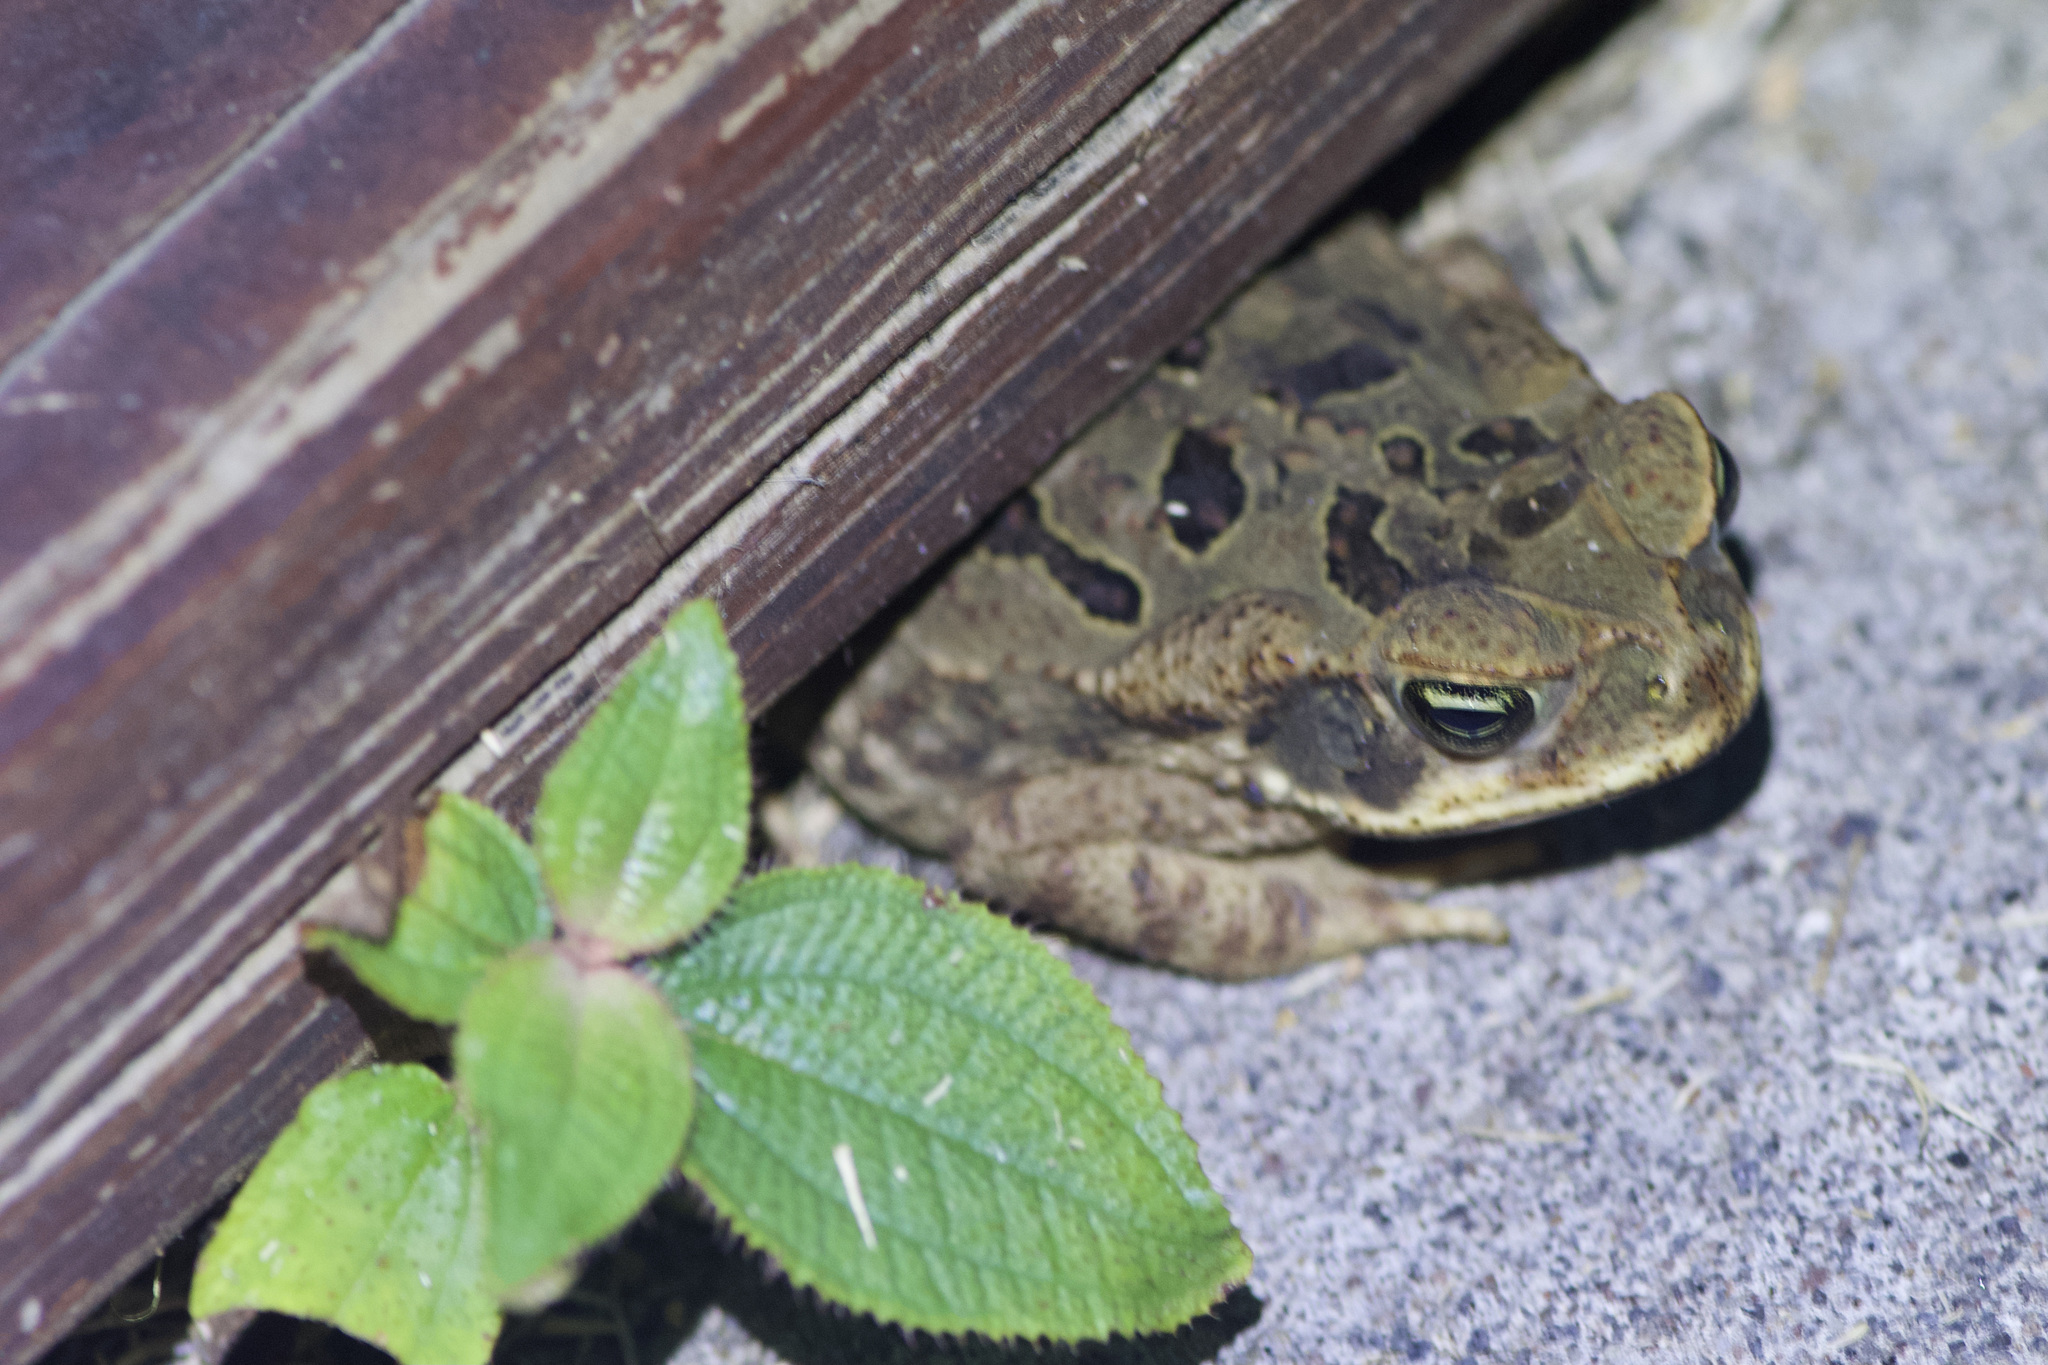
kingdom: Animalia
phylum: Chordata
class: Amphibia
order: Anura
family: Bufonidae
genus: Rhinella
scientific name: Rhinella horribilis
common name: Mesoamerican cane toad
